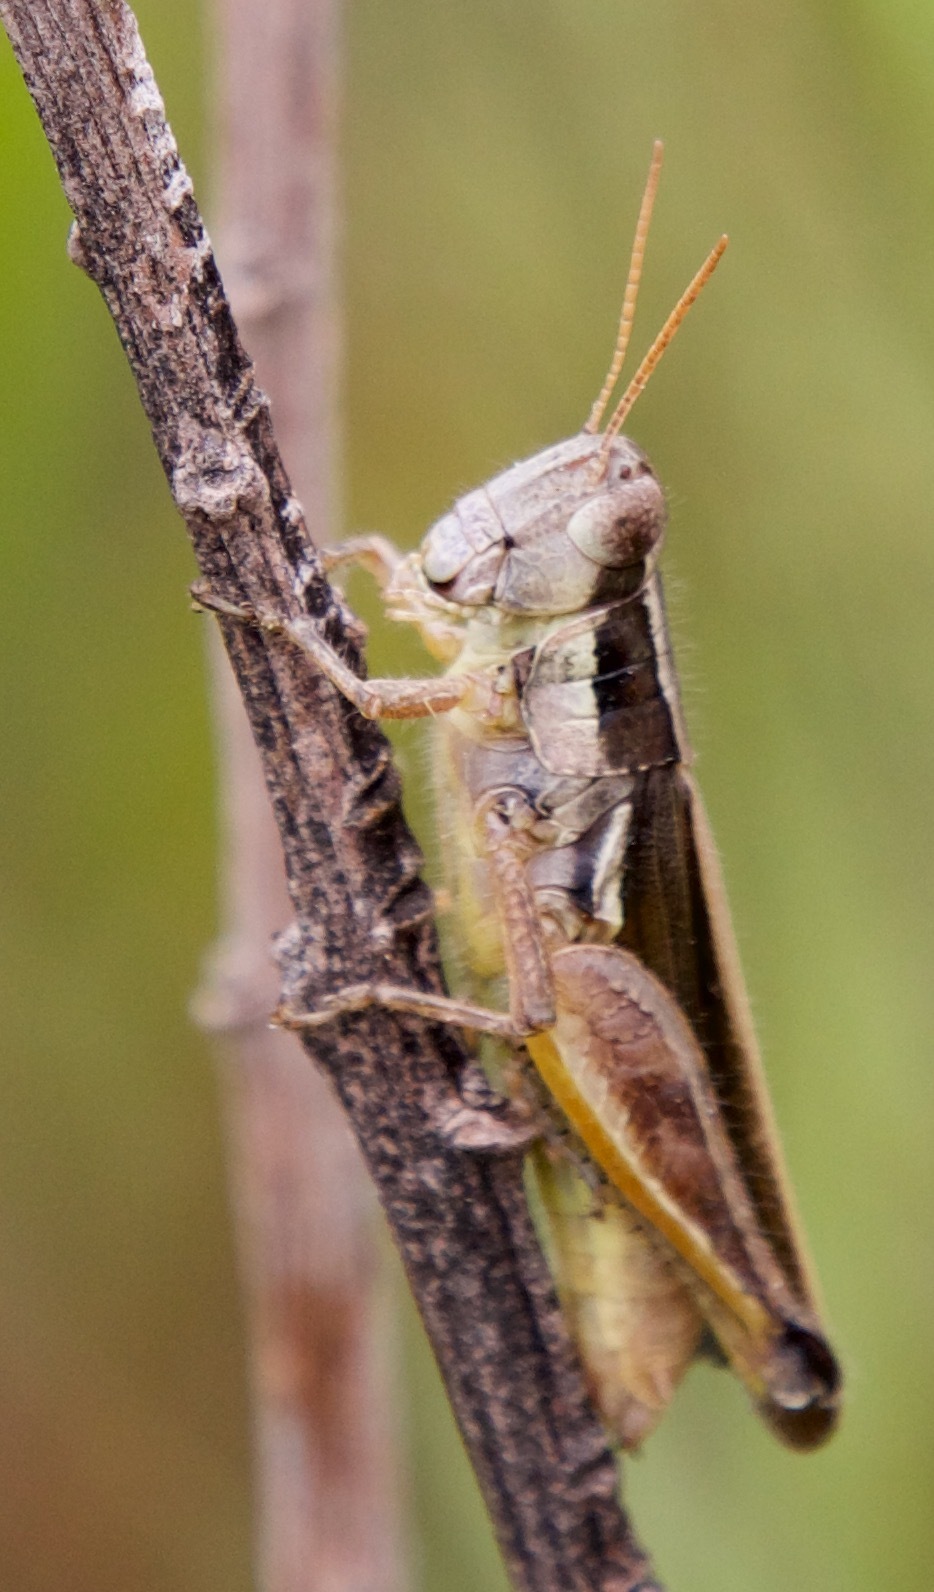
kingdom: Animalia
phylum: Arthropoda
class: Insecta
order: Orthoptera
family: Acrididae
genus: Dichroplus
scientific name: Dichroplus elongatus
